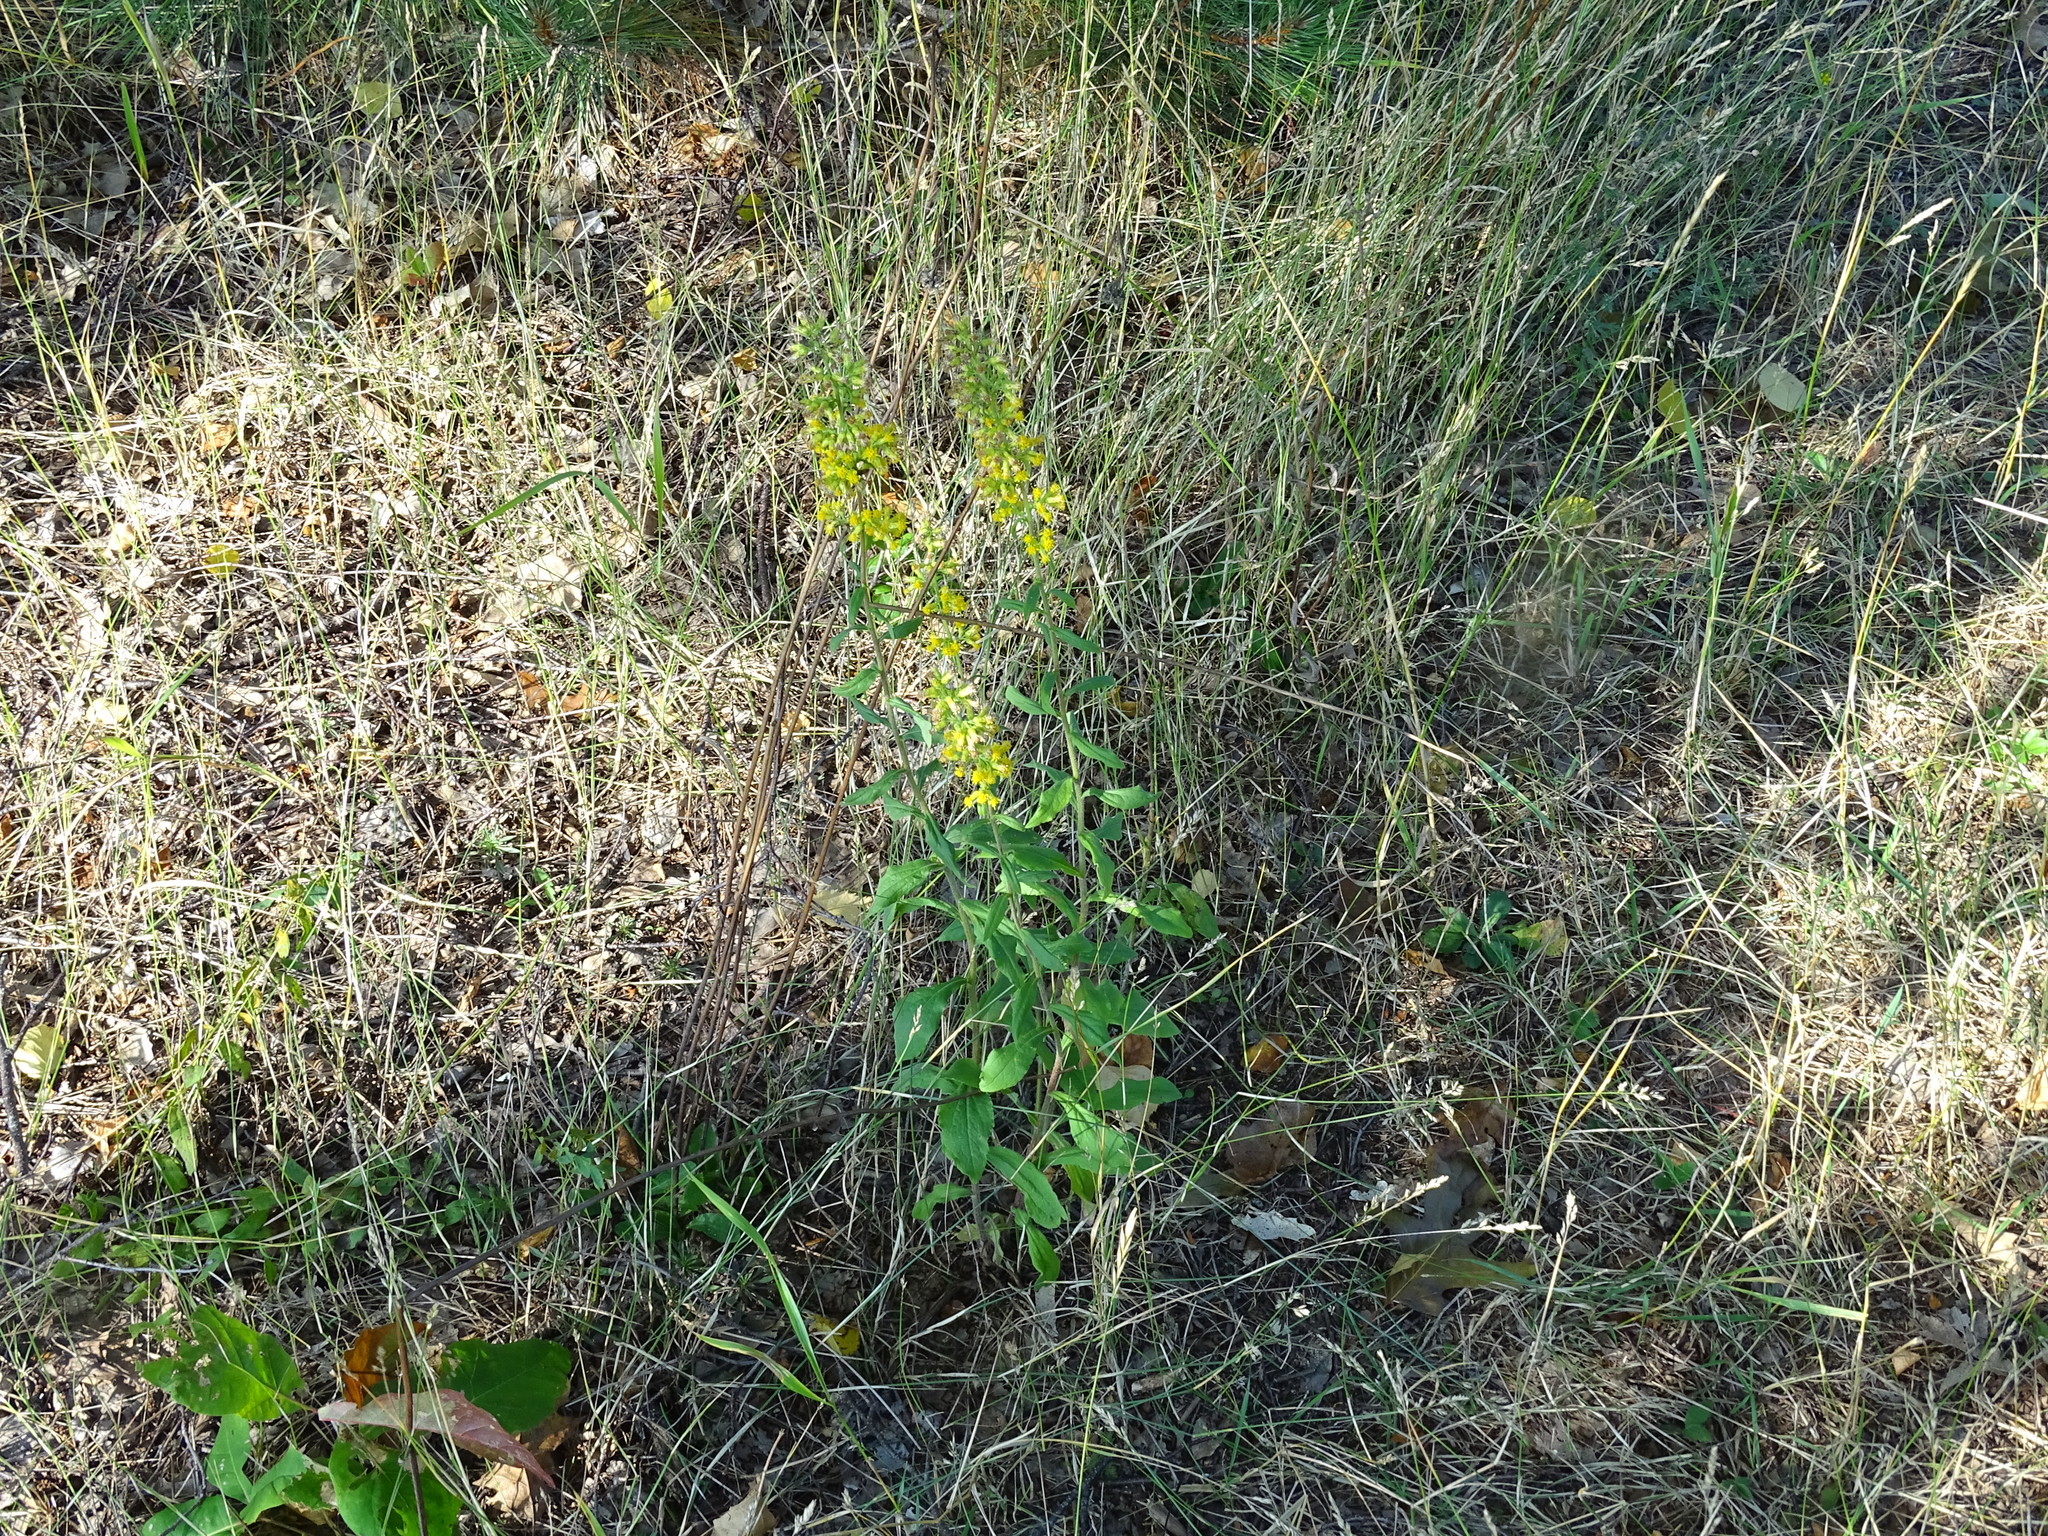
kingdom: Plantae
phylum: Tracheophyta
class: Magnoliopsida
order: Asterales
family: Asteraceae
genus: Solidago
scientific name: Solidago hispida
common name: Hairy goldenrod
